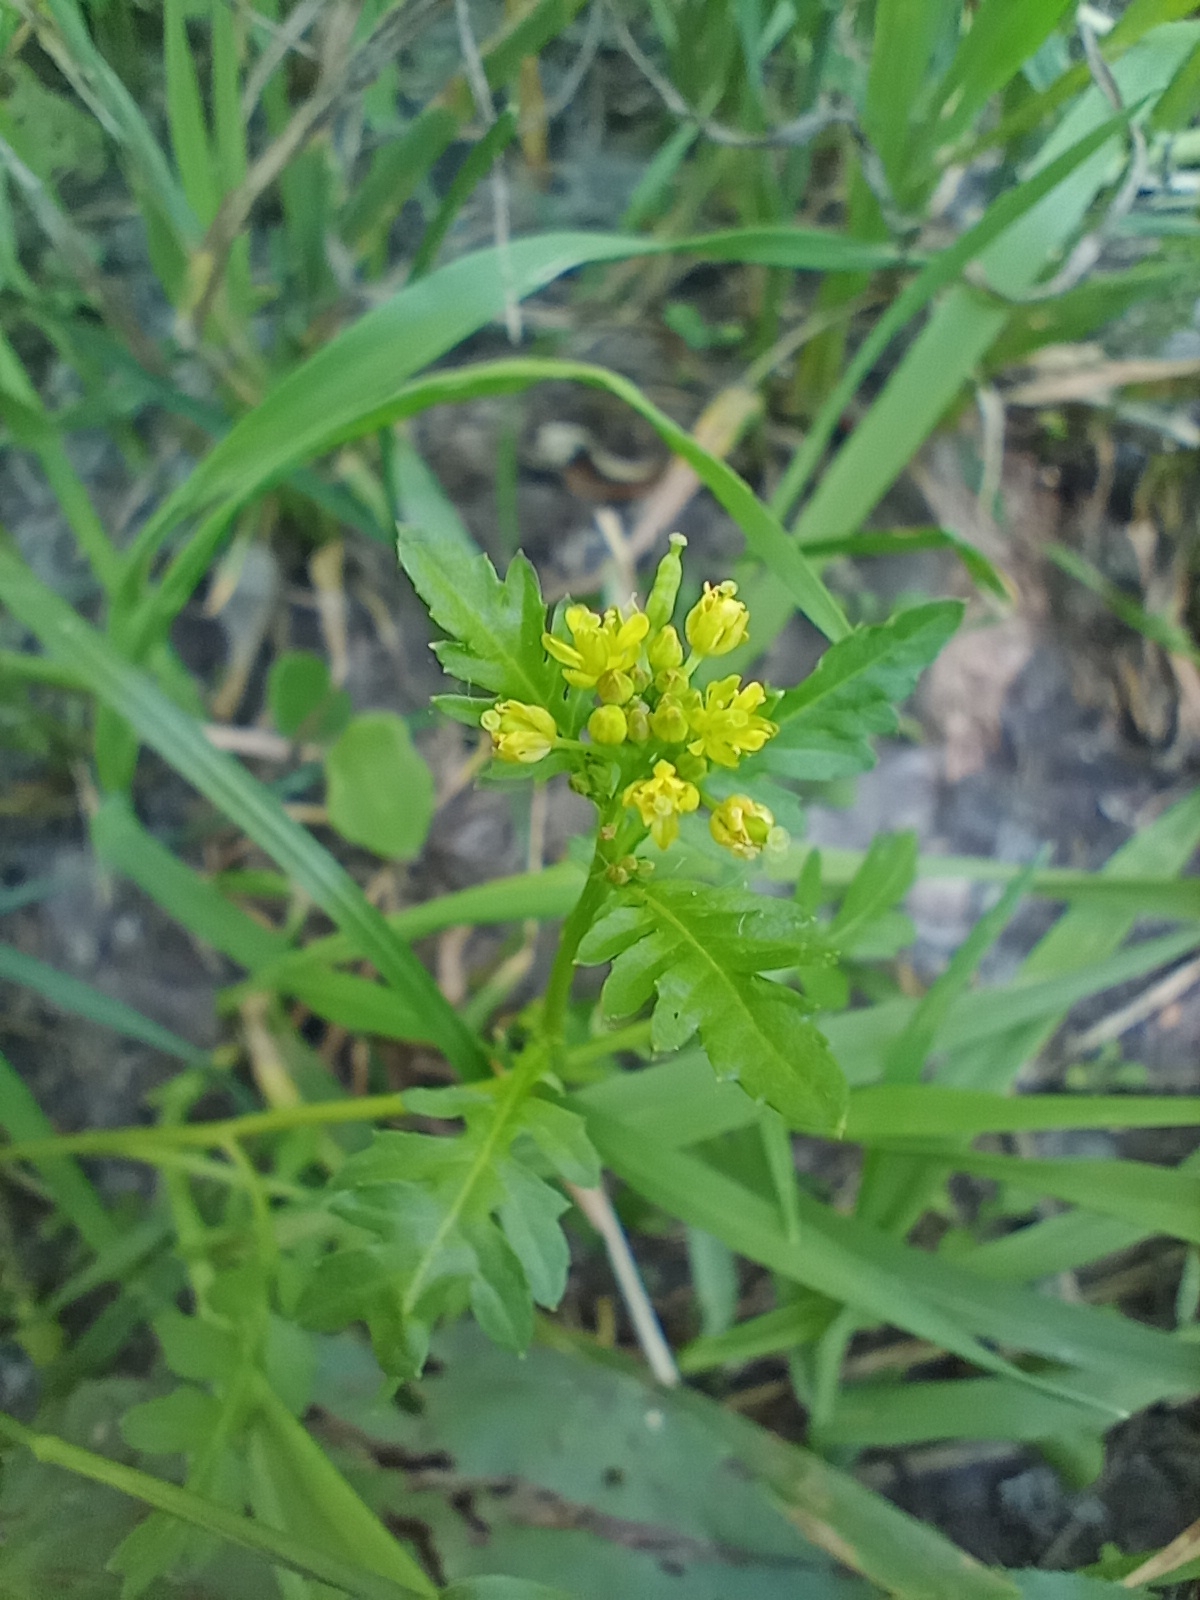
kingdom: Plantae
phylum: Tracheophyta
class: Magnoliopsida
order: Brassicales
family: Brassicaceae
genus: Rorippa
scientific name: Rorippa palustris
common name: Marsh yellow-cress
